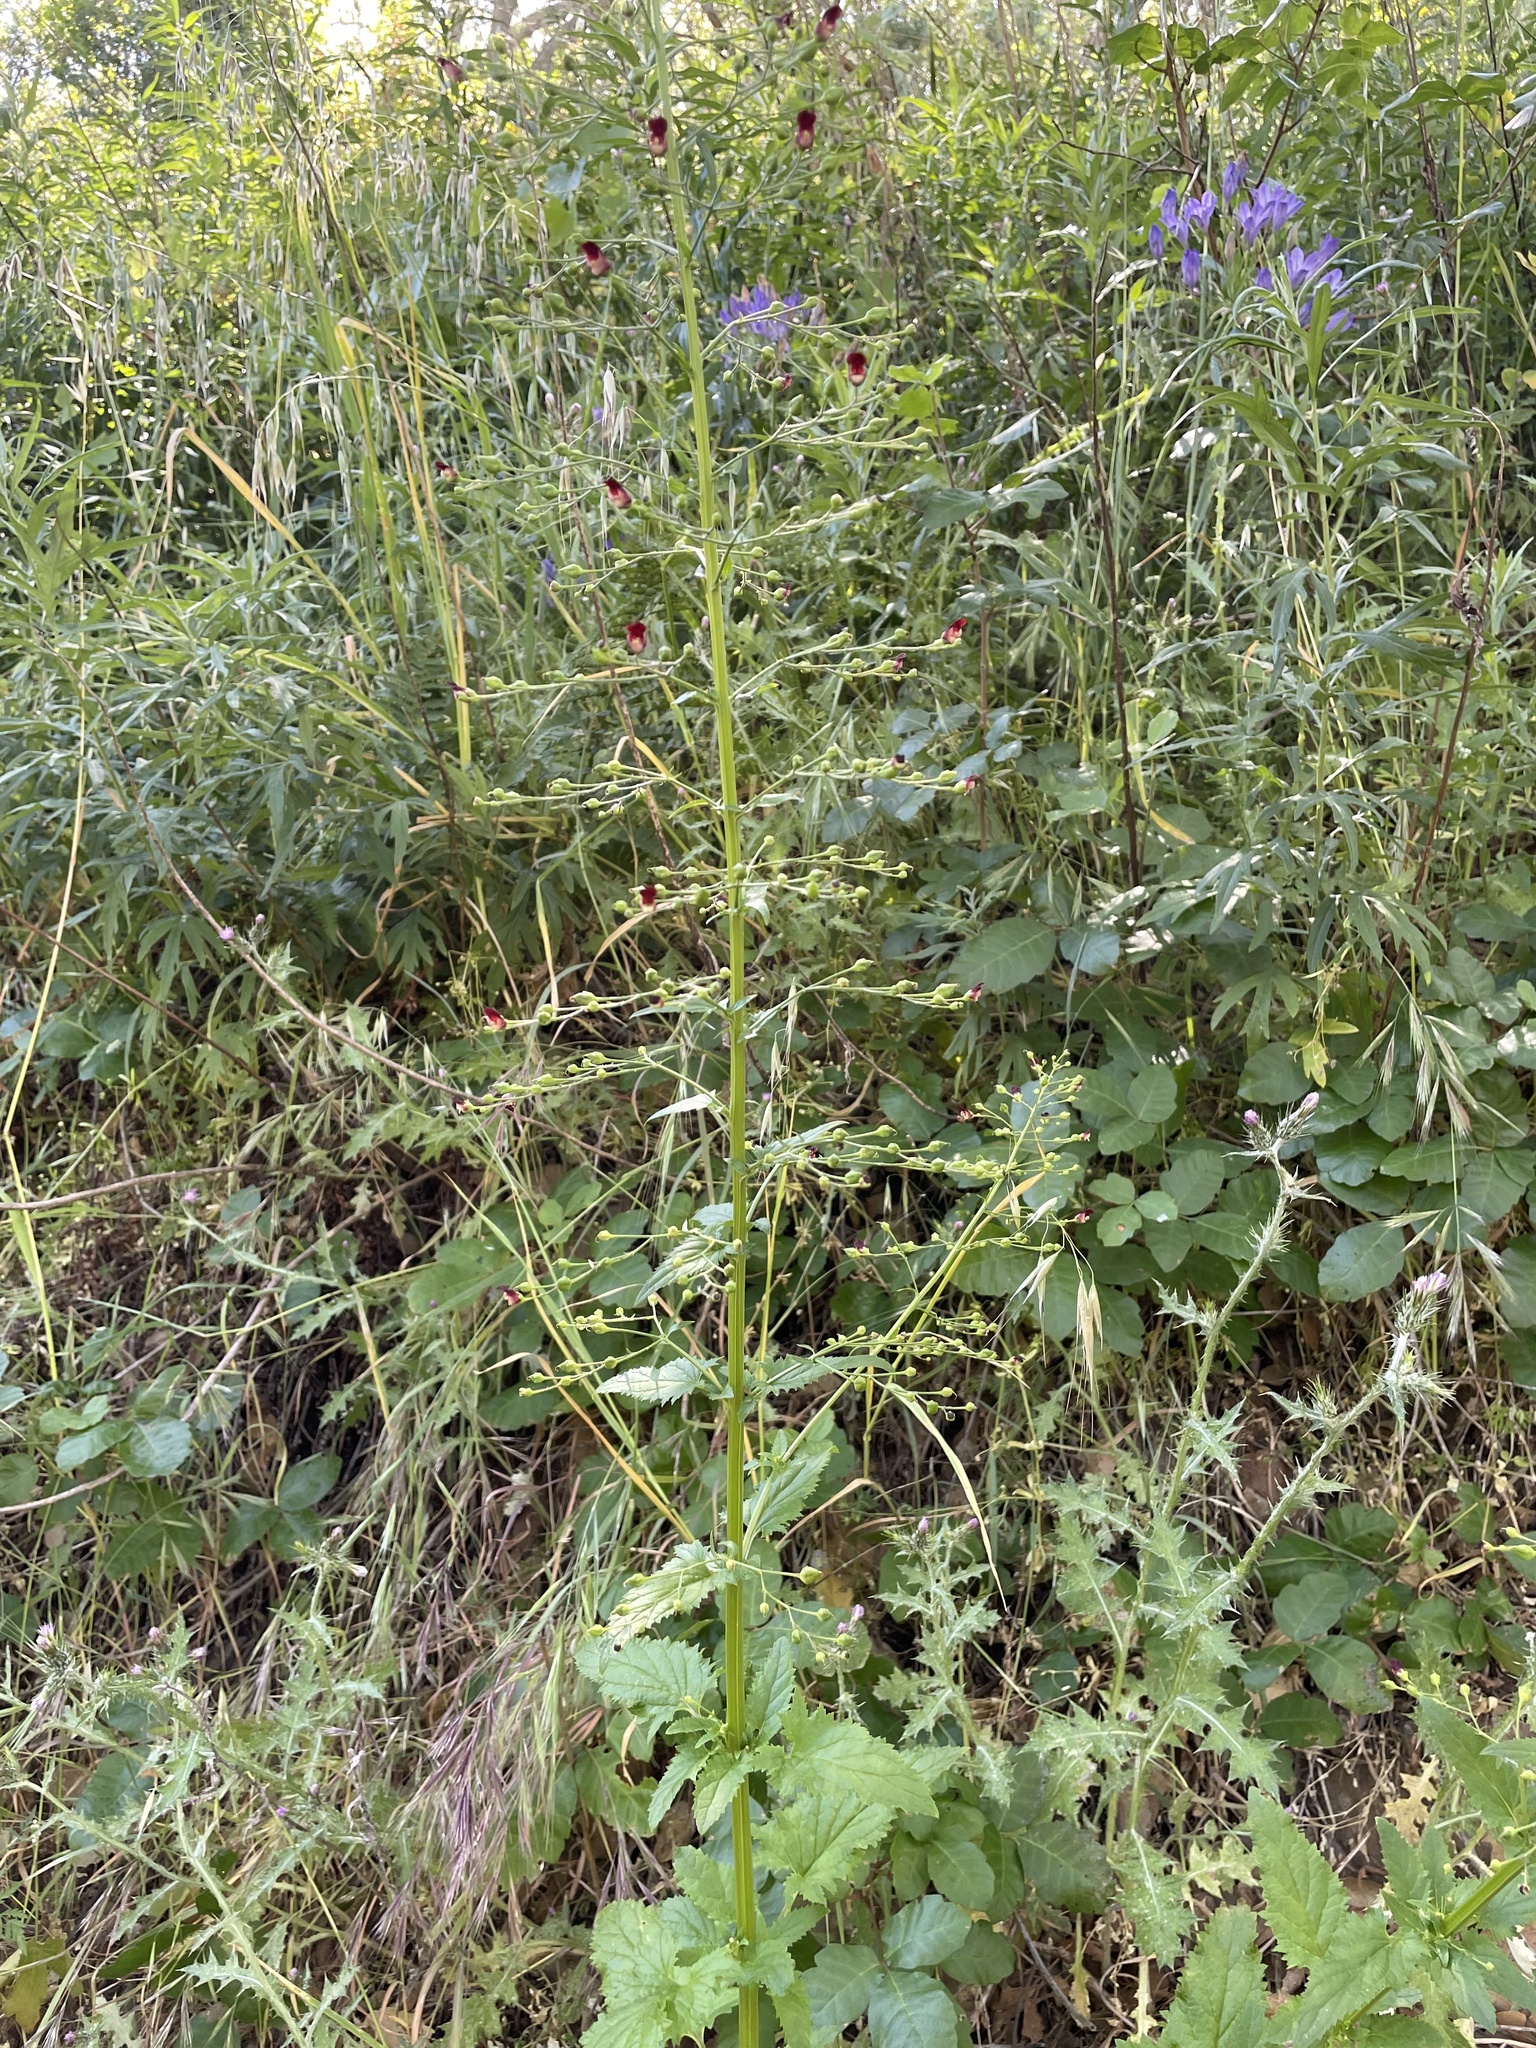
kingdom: Plantae
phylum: Tracheophyta
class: Magnoliopsida
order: Lamiales
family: Scrophulariaceae
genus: Scrophularia
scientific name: Scrophularia californica
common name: California figwort
